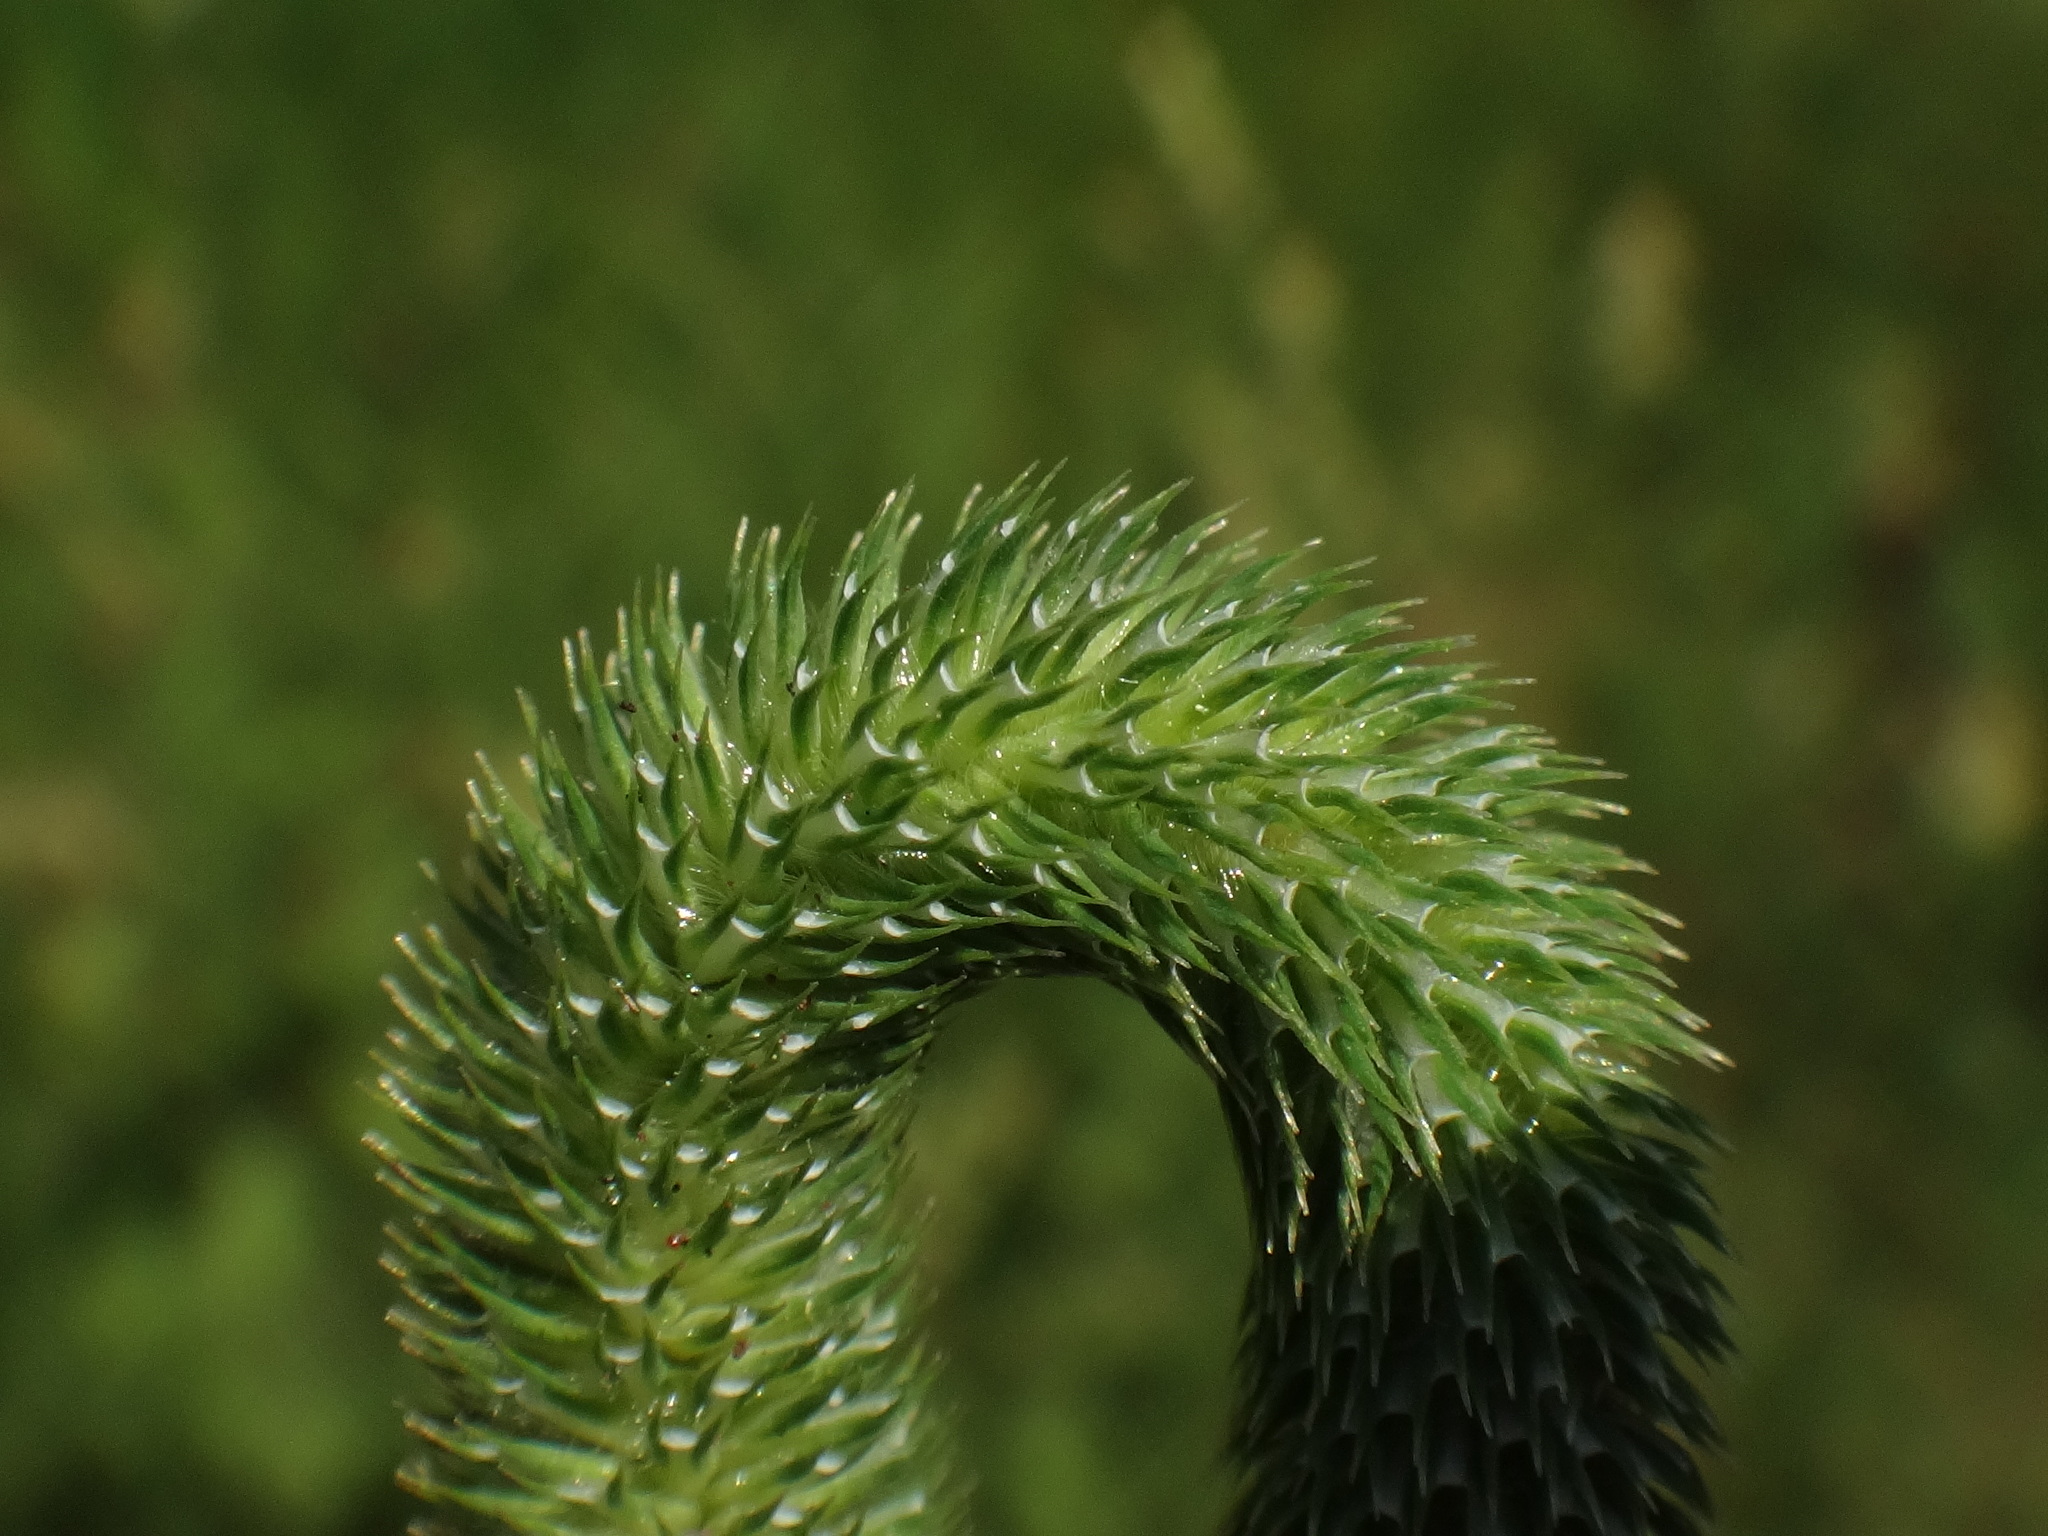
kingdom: Plantae
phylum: Tracheophyta
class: Liliopsida
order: Poales
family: Poaceae
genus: Phleum
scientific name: Phleum bertolonii
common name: Smaller cat's-tail
